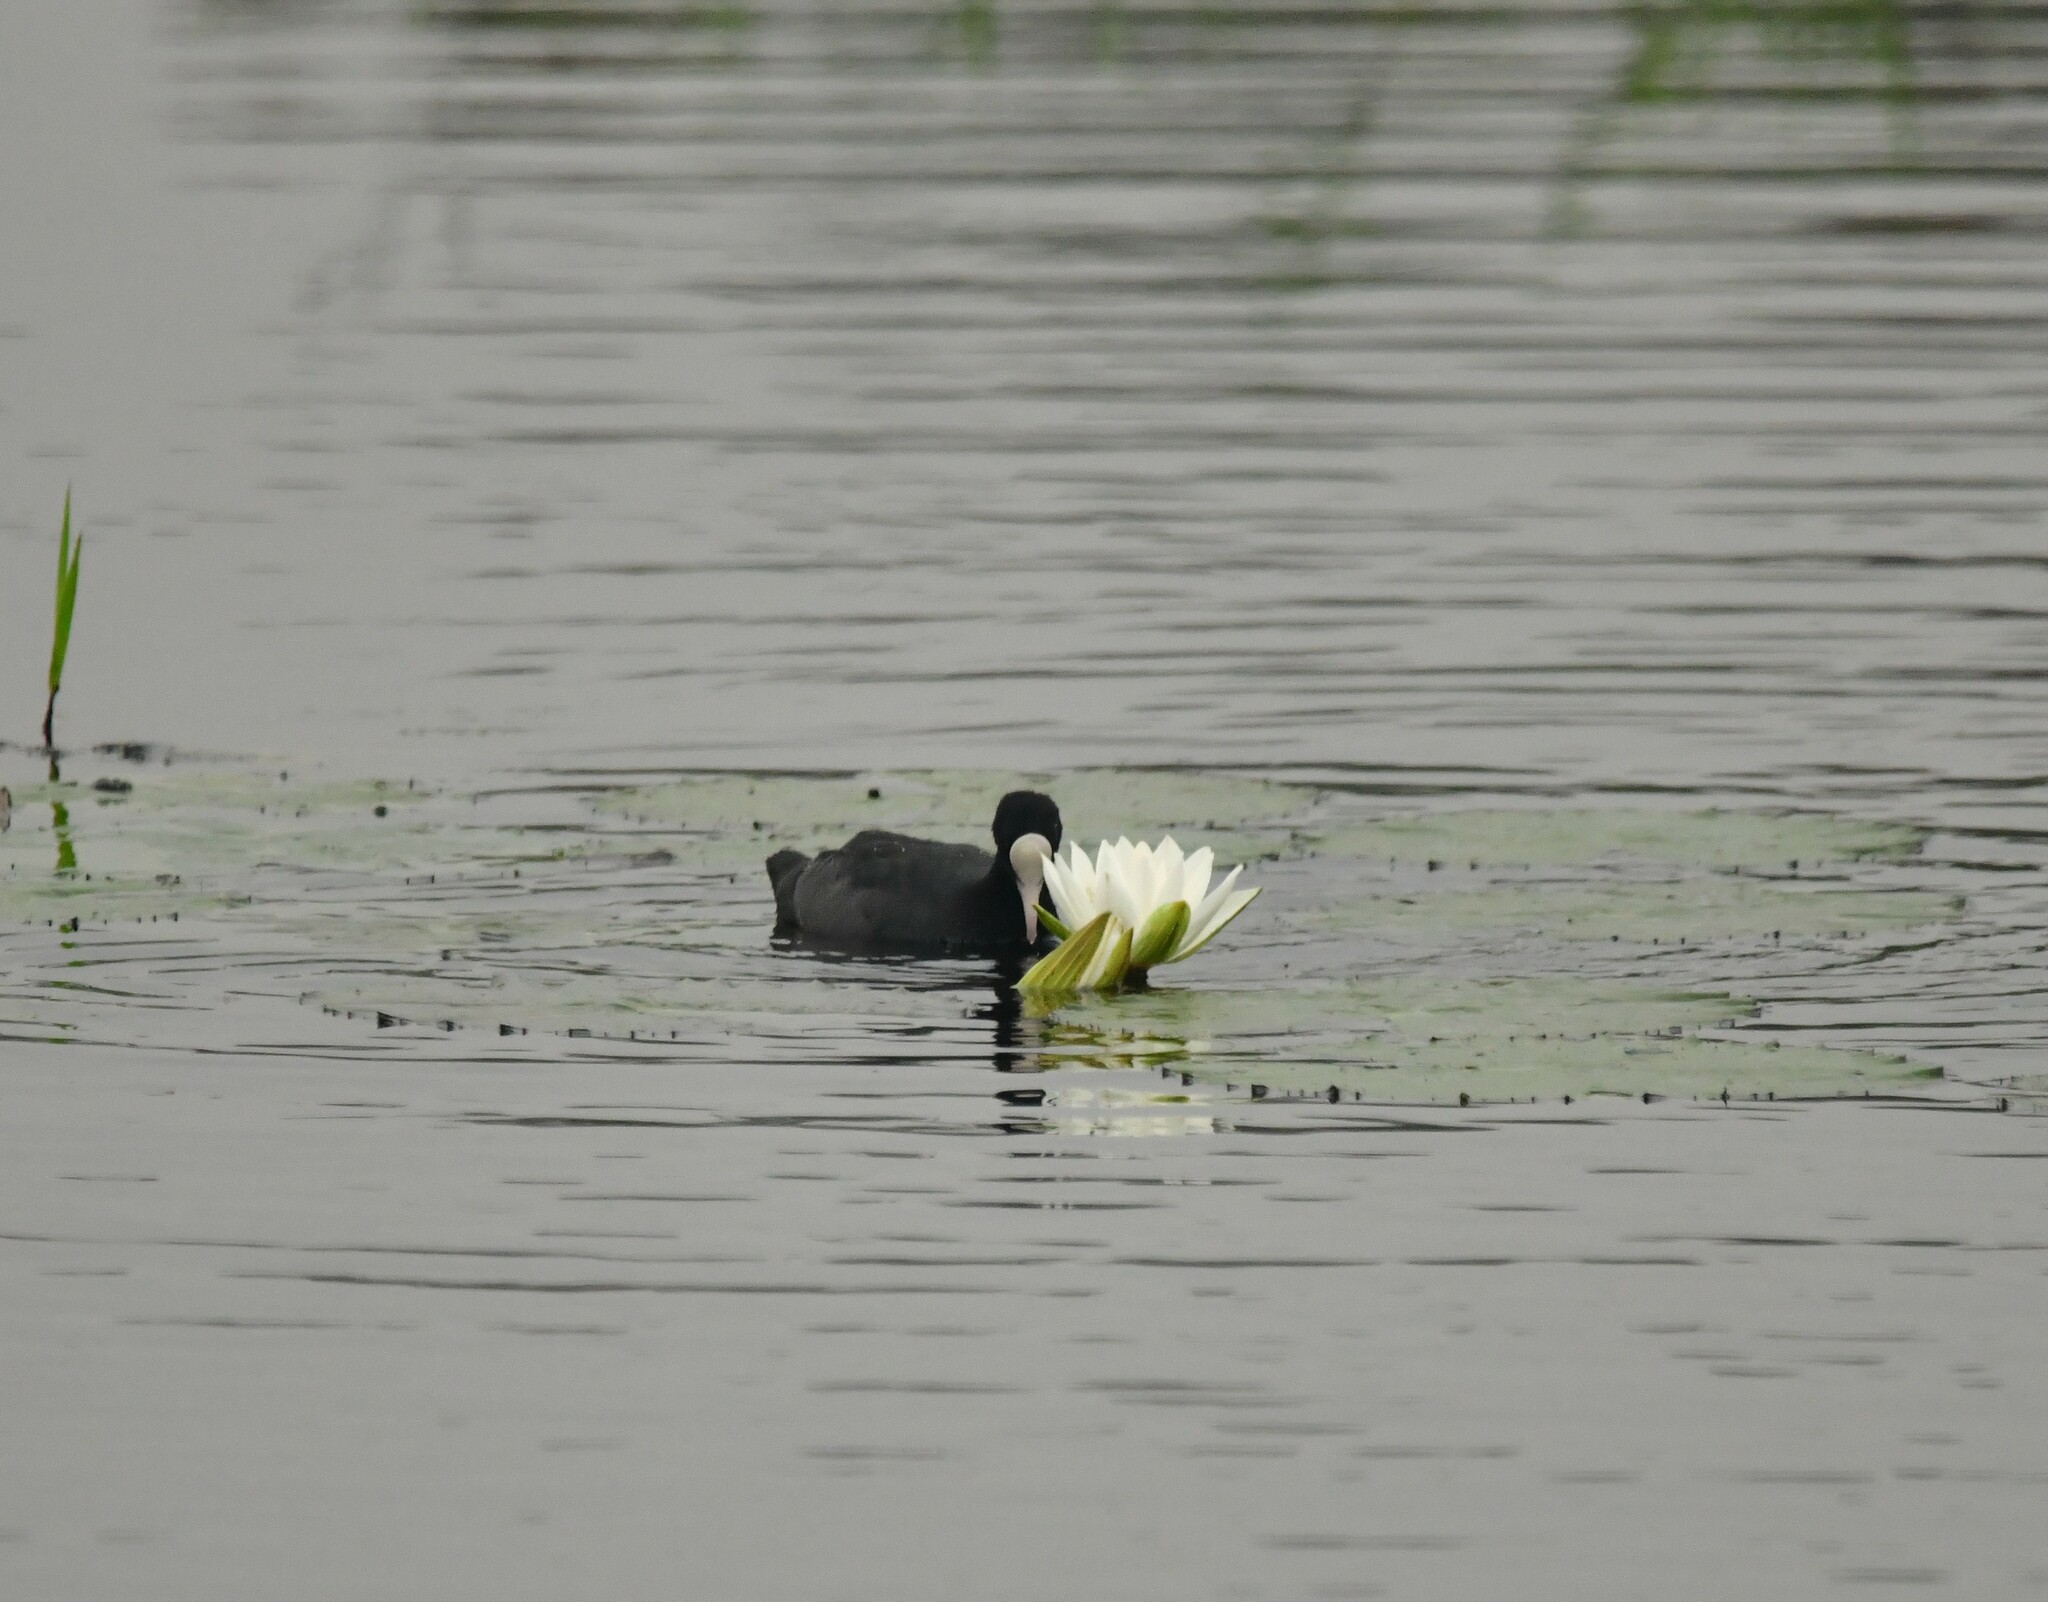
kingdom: Animalia
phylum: Chordata
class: Aves
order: Gruiformes
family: Rallidae
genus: Fulica
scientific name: Fulica atra
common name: Eurasian coot
